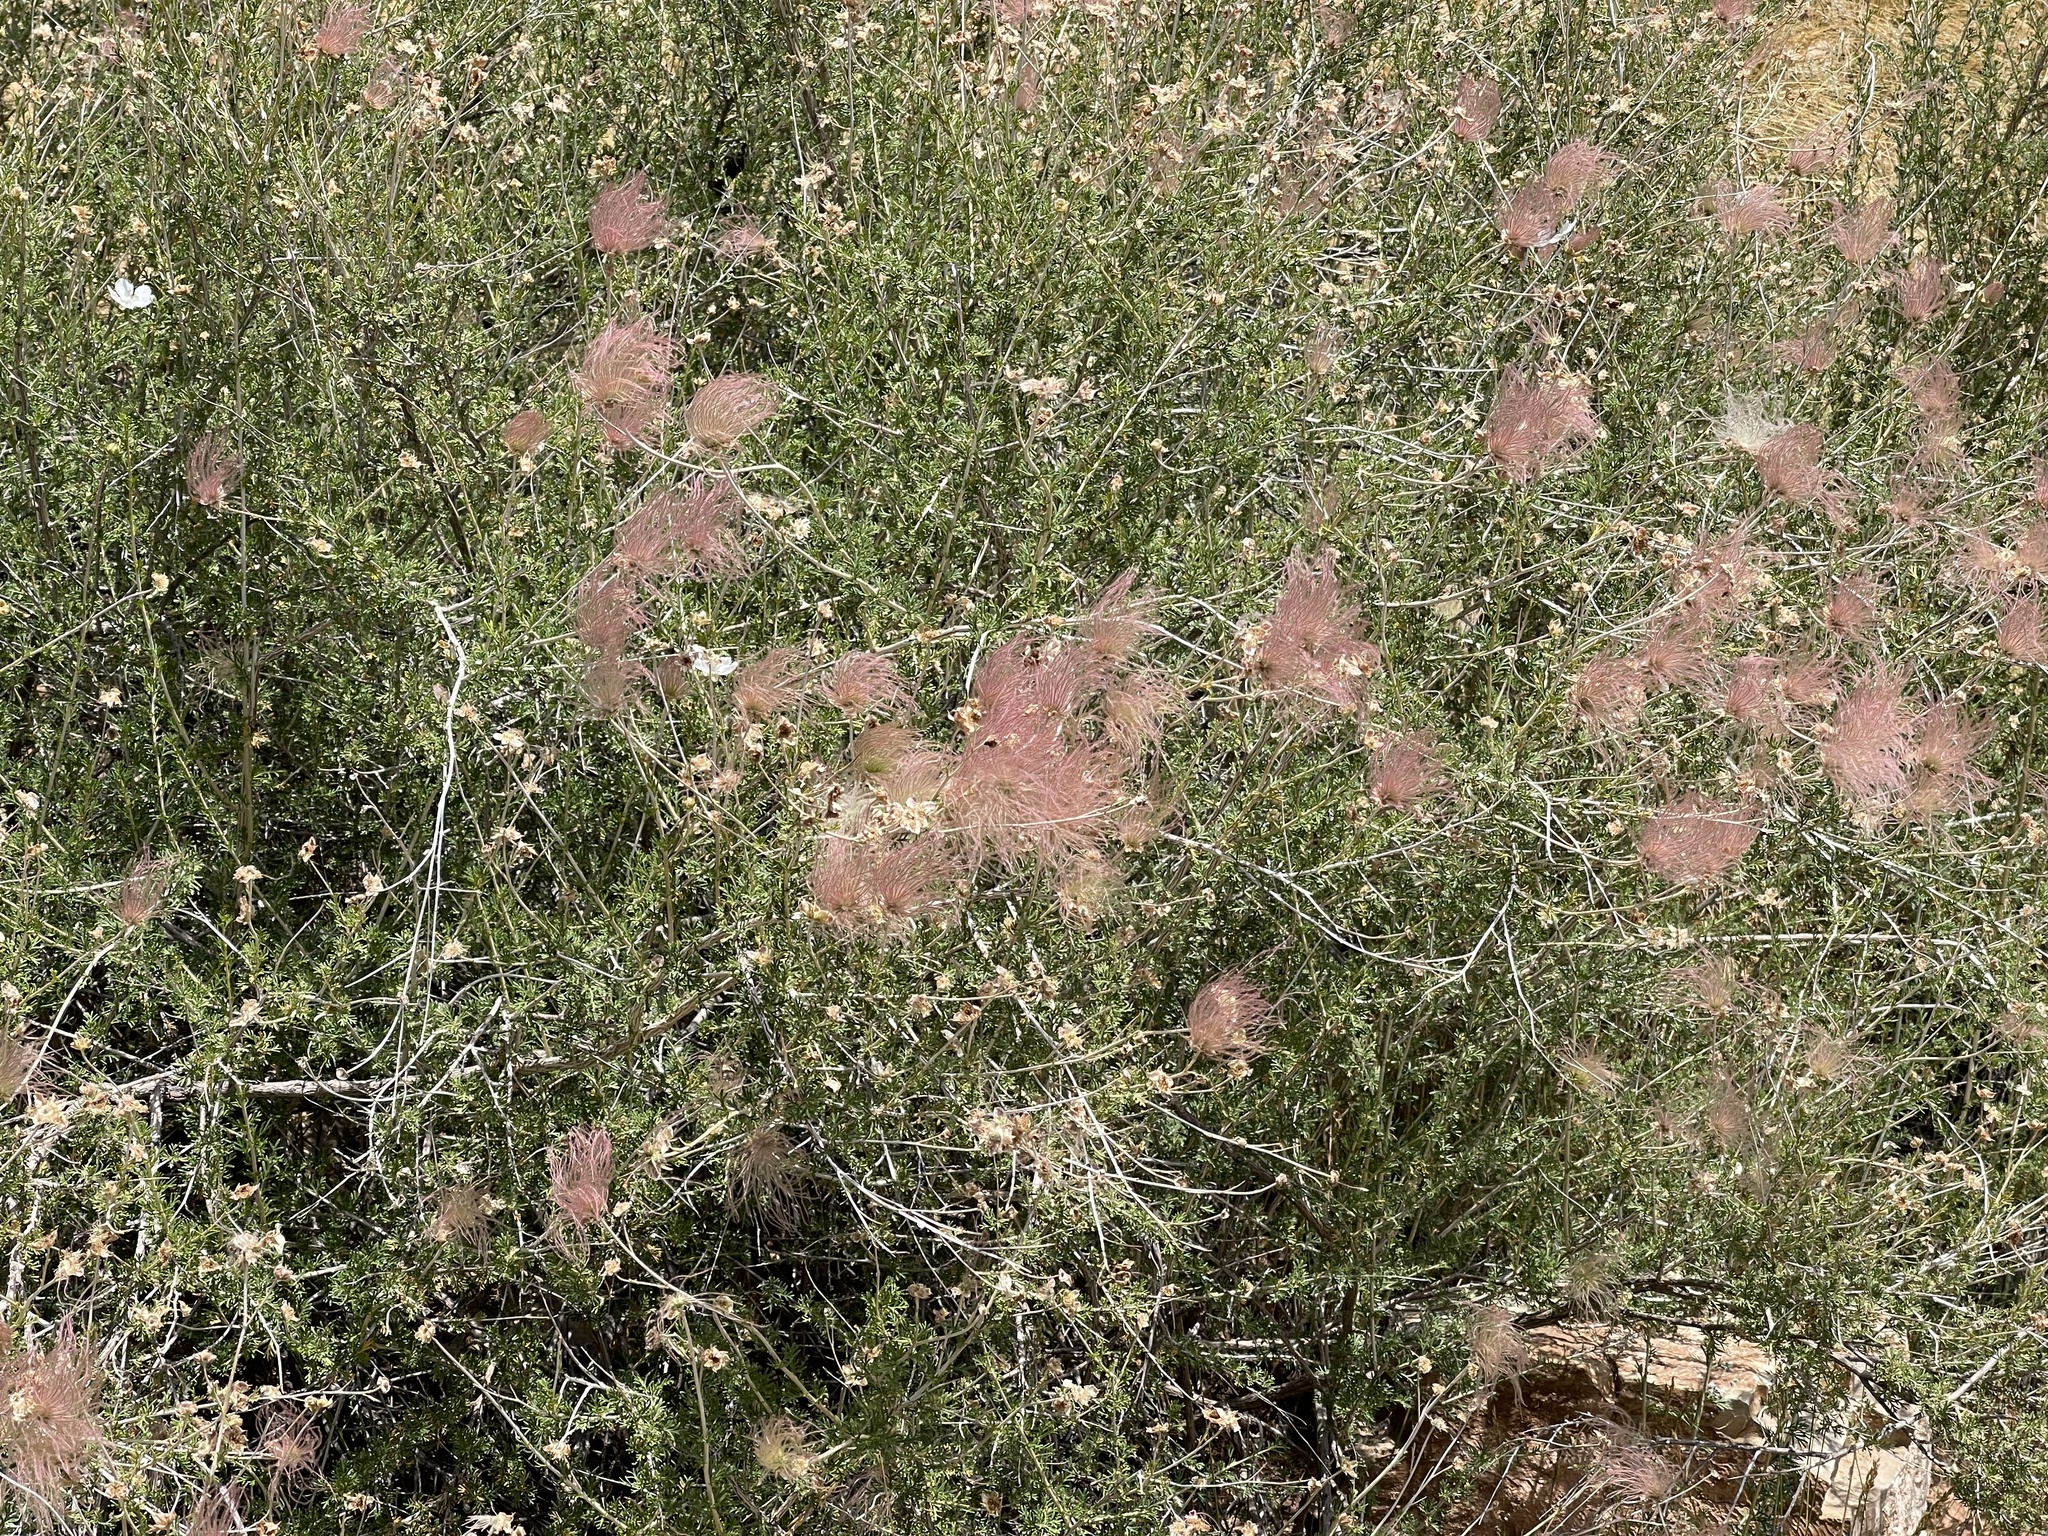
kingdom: Plantae
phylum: Tracheophyta
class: Magnoliopsida
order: Rosales
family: Rosaceae
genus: Fallugia
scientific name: Fallugia paradoxa
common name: Apache-plume
